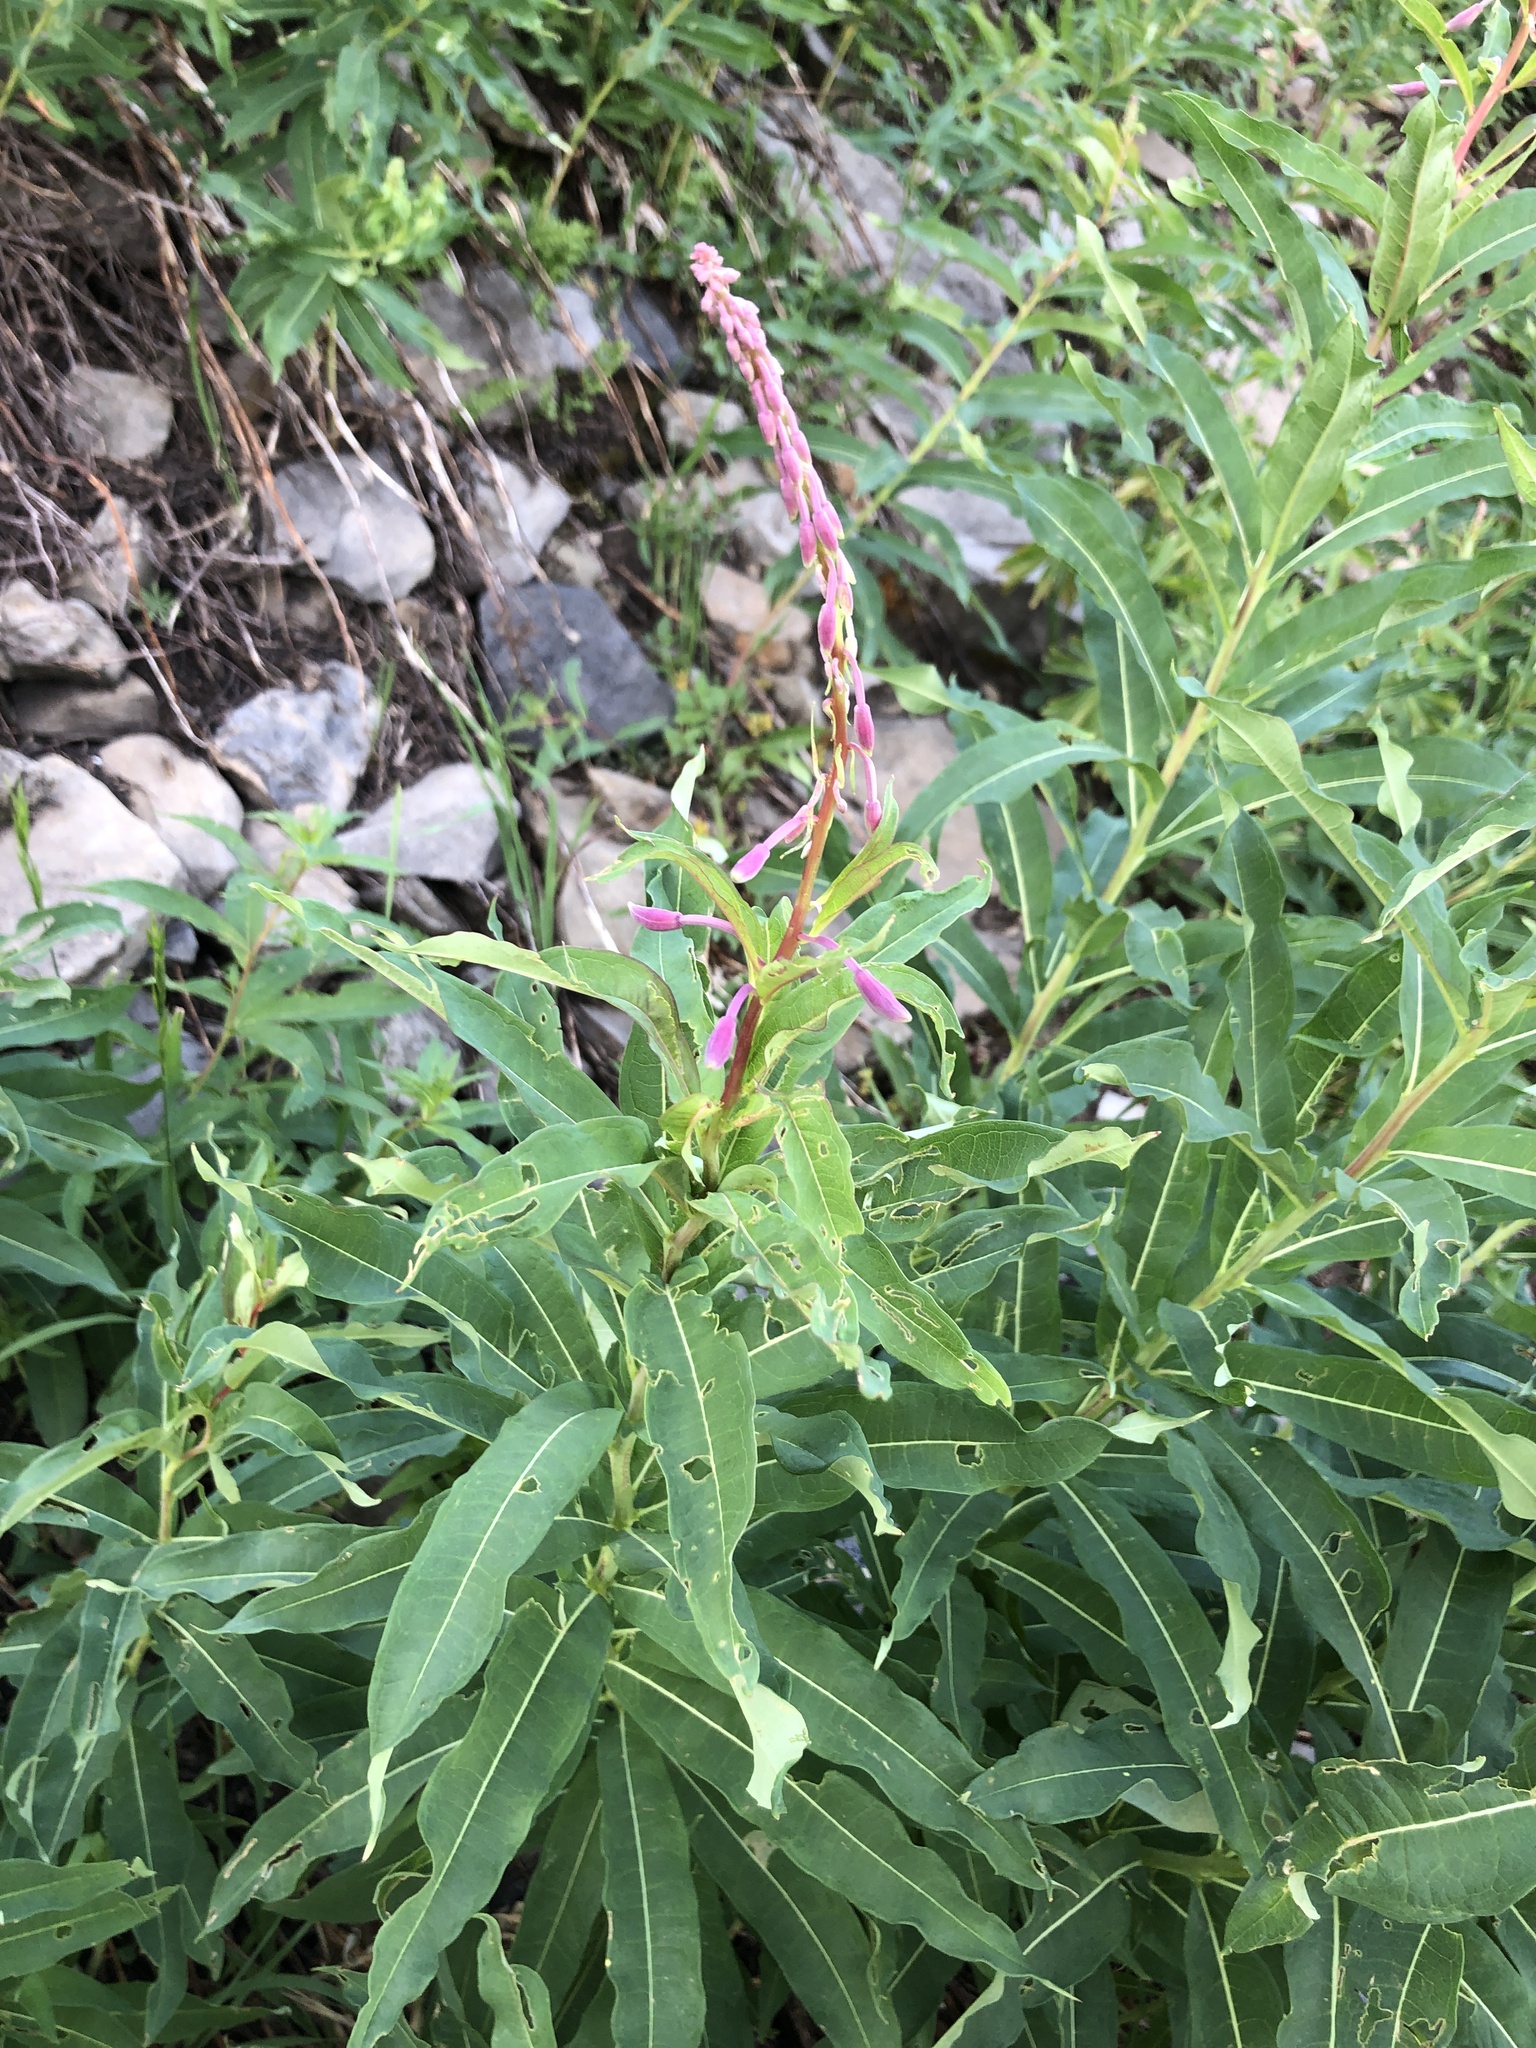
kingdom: Plantae
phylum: Tracheophyta
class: Magnoliopsida
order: Myrtales
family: Onagraceae
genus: Chamaenerion
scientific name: Chamaenerion angustifolium
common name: Fireweed
